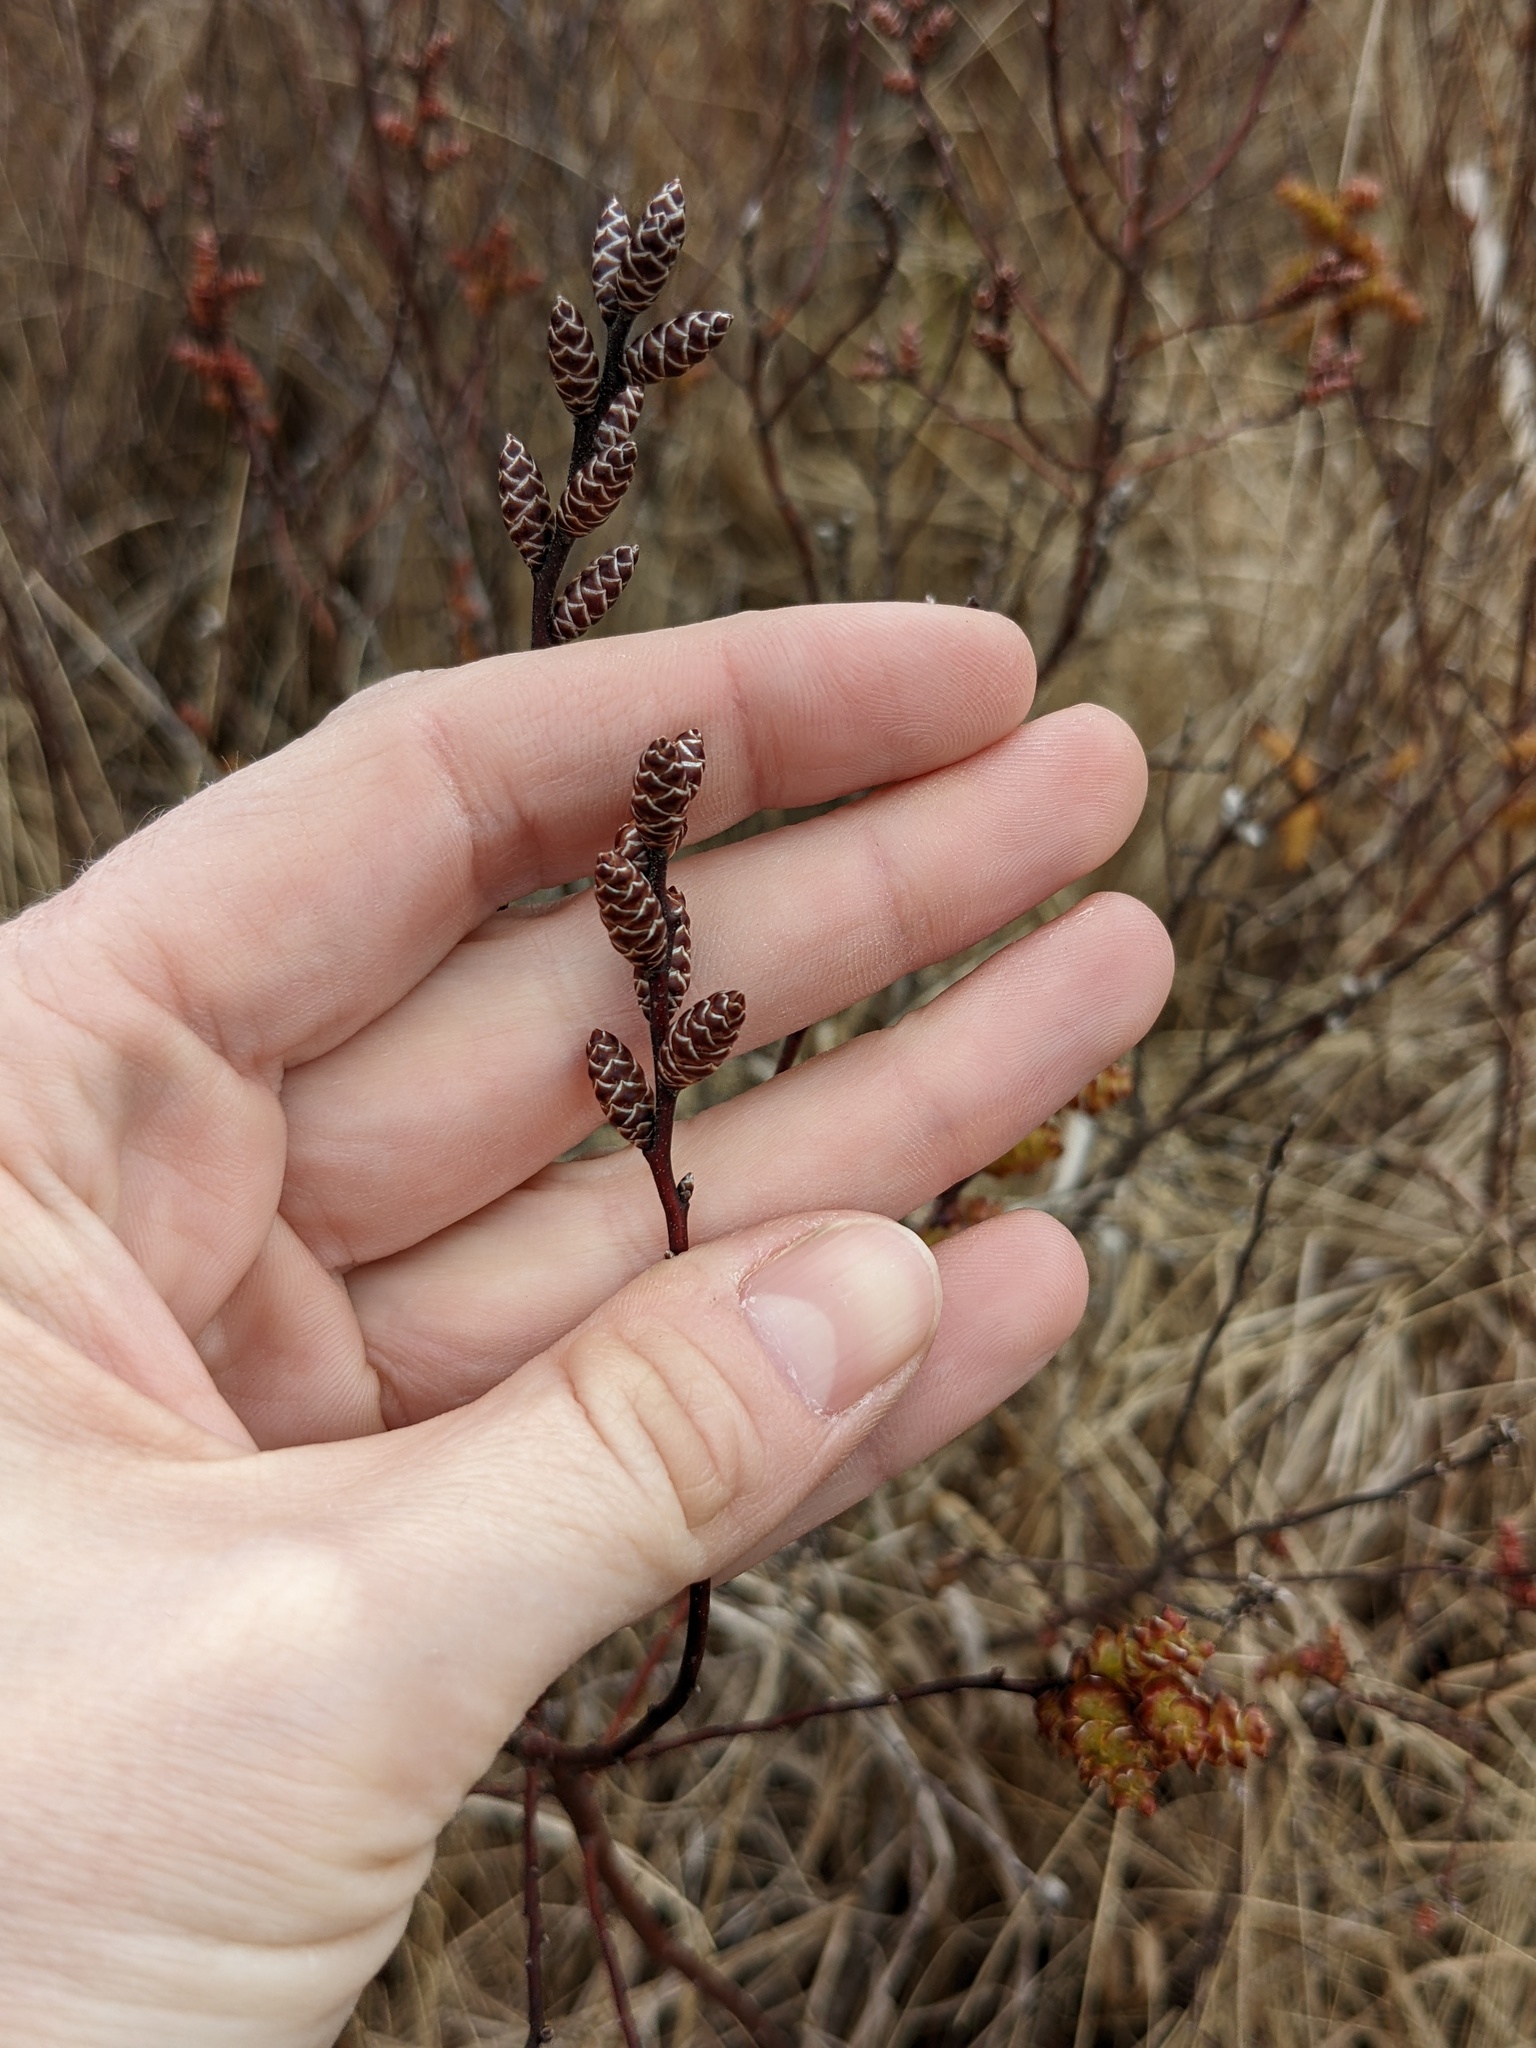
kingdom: Plantae
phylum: Tracheophyta
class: Magnoliopsida
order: Fagales
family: Myricaceae
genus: Myrica
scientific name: Myrica gale
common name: Sweet gale
